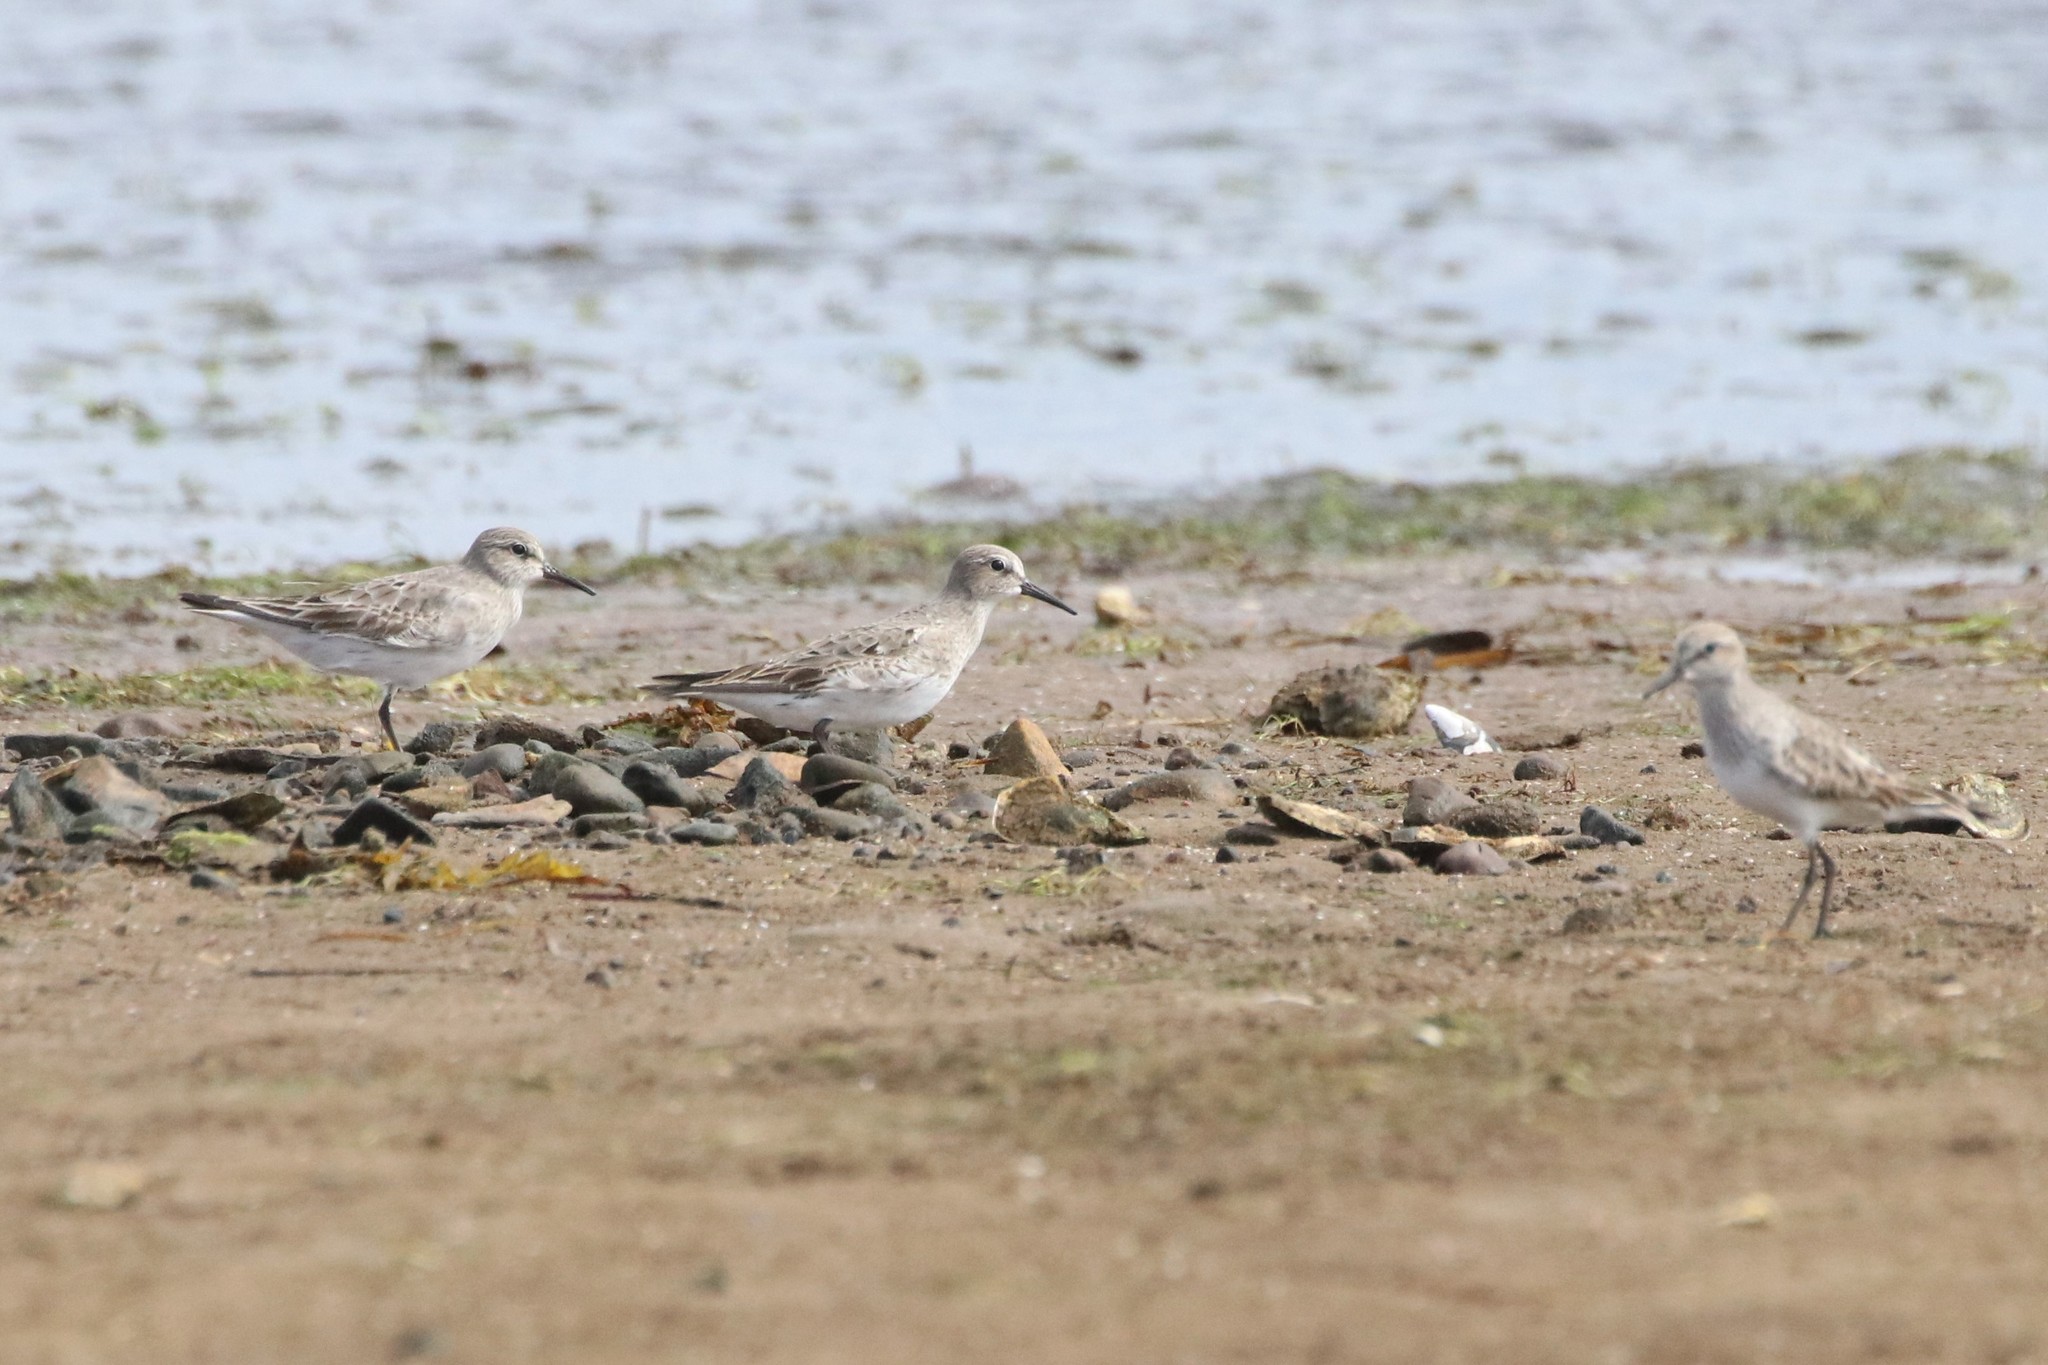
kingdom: Animalia
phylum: Chordata
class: Aves
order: Charadriiformes
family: Scolopacidae
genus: Calidris
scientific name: Calidris fuscicollis
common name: White-rumped sandpiper
